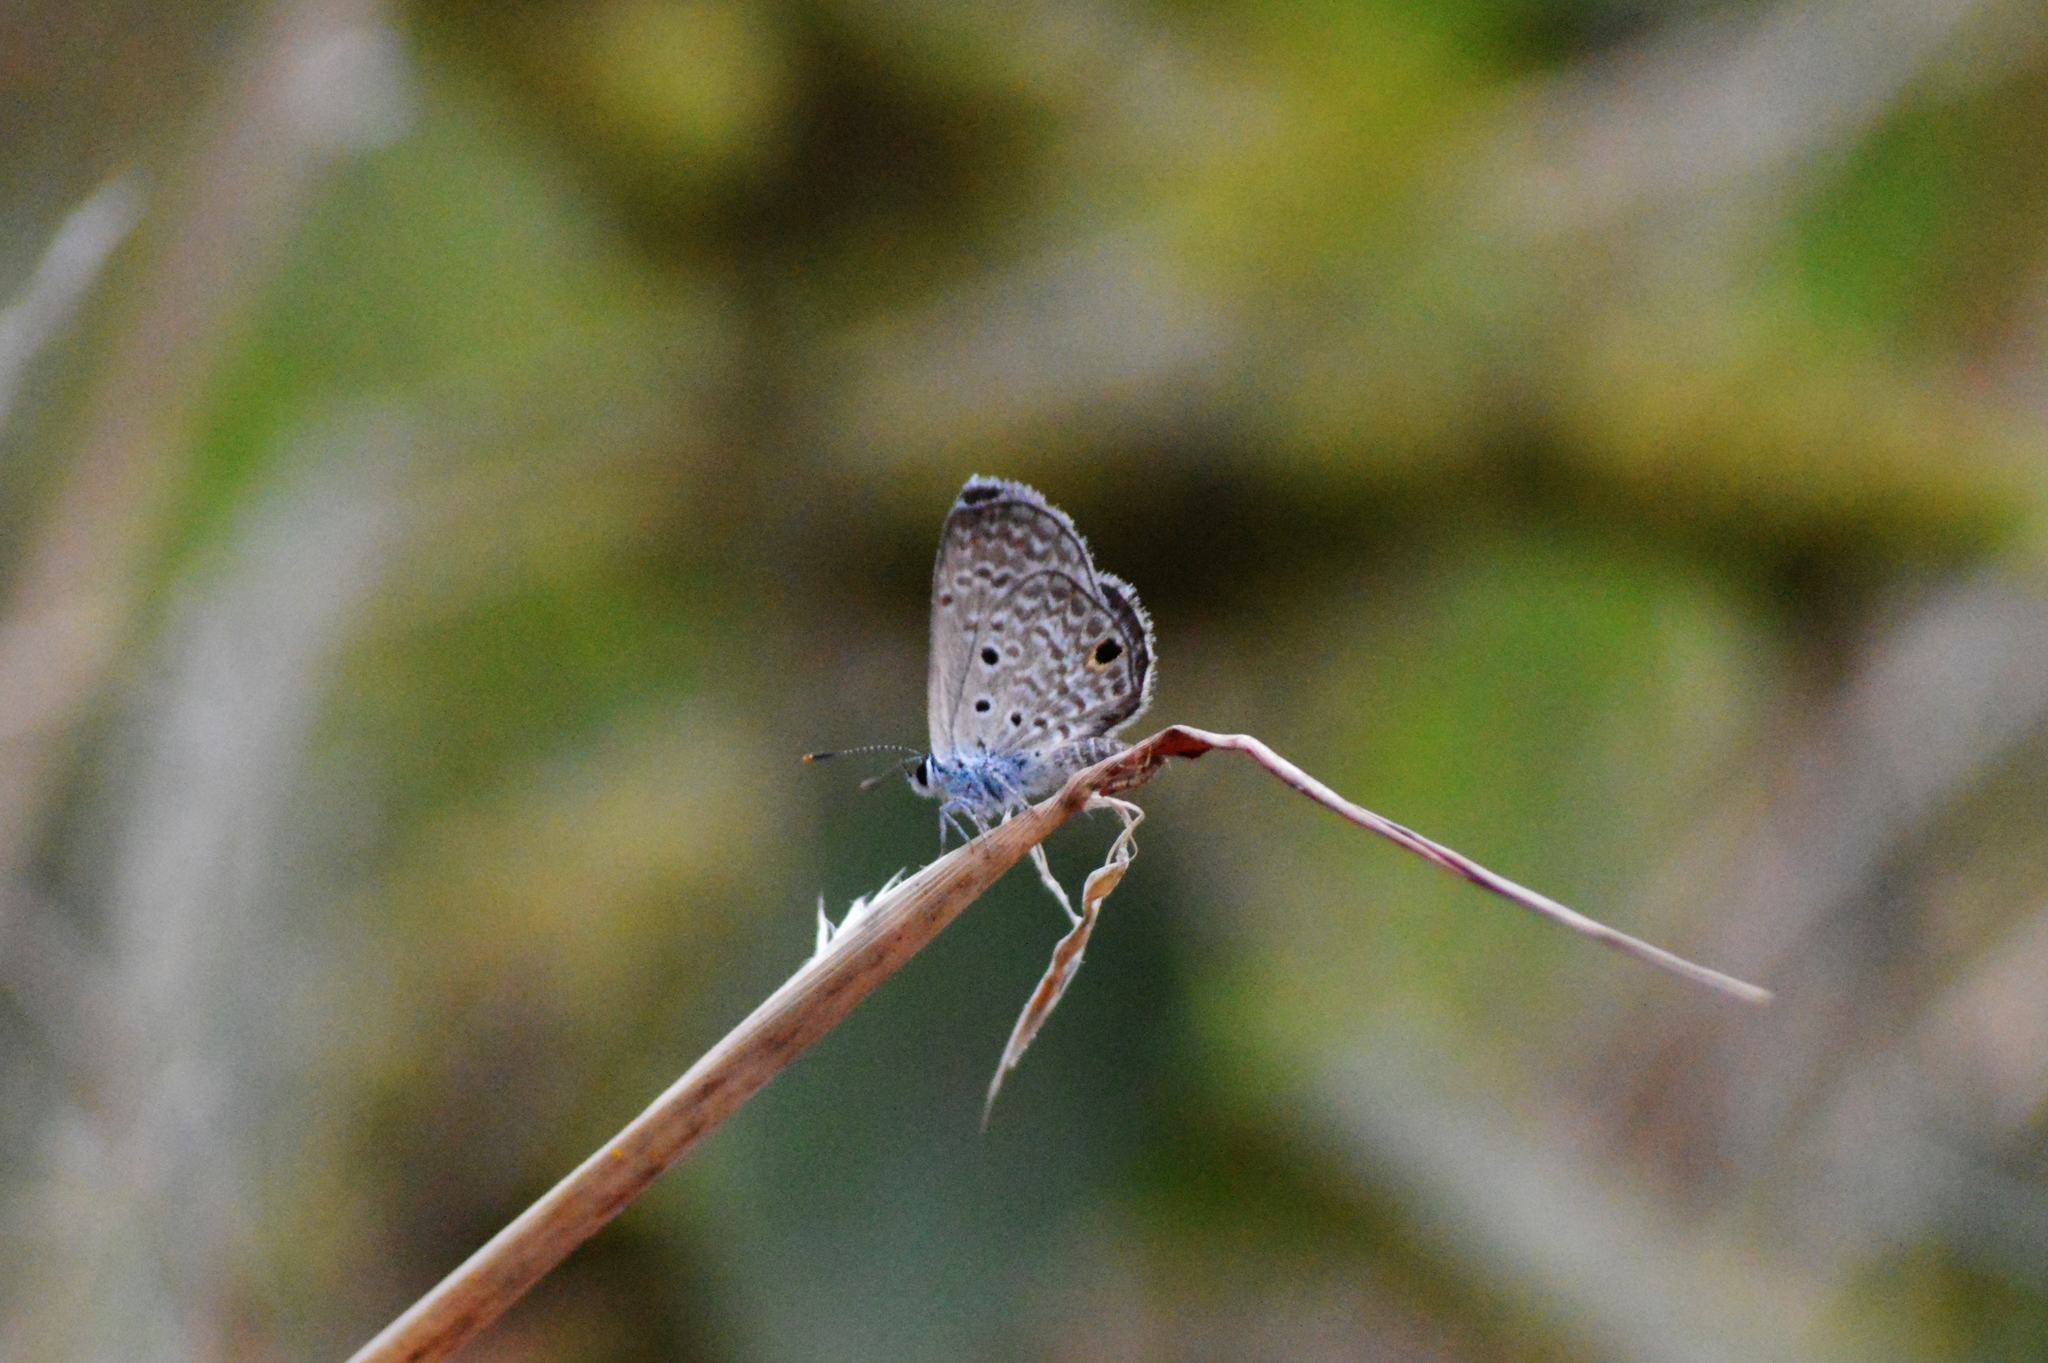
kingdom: Animalia
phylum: Arthropoda
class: Insecta
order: Lepidoptera
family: Lycaenidae
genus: Hemiargus
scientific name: Hemiargus hanno
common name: Common blue
